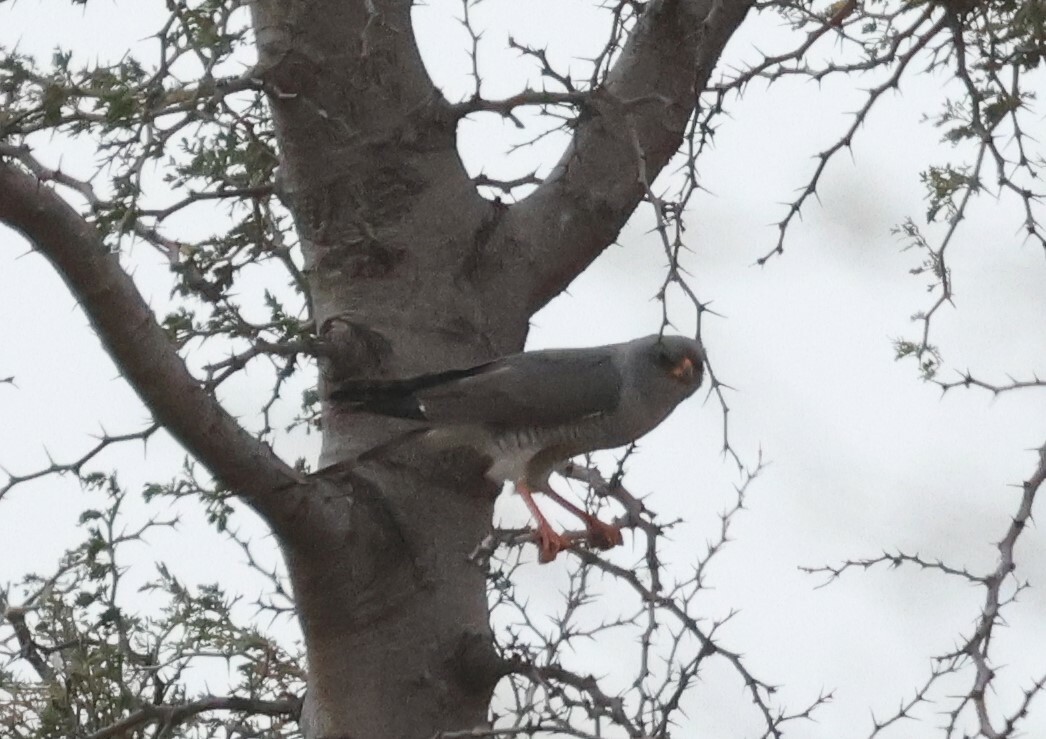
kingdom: Animalia
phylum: Chordata
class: Aves
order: Accipitriformes
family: Accipitridae
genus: Micronisus
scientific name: Micronisus gabar
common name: Gabar goshawk
